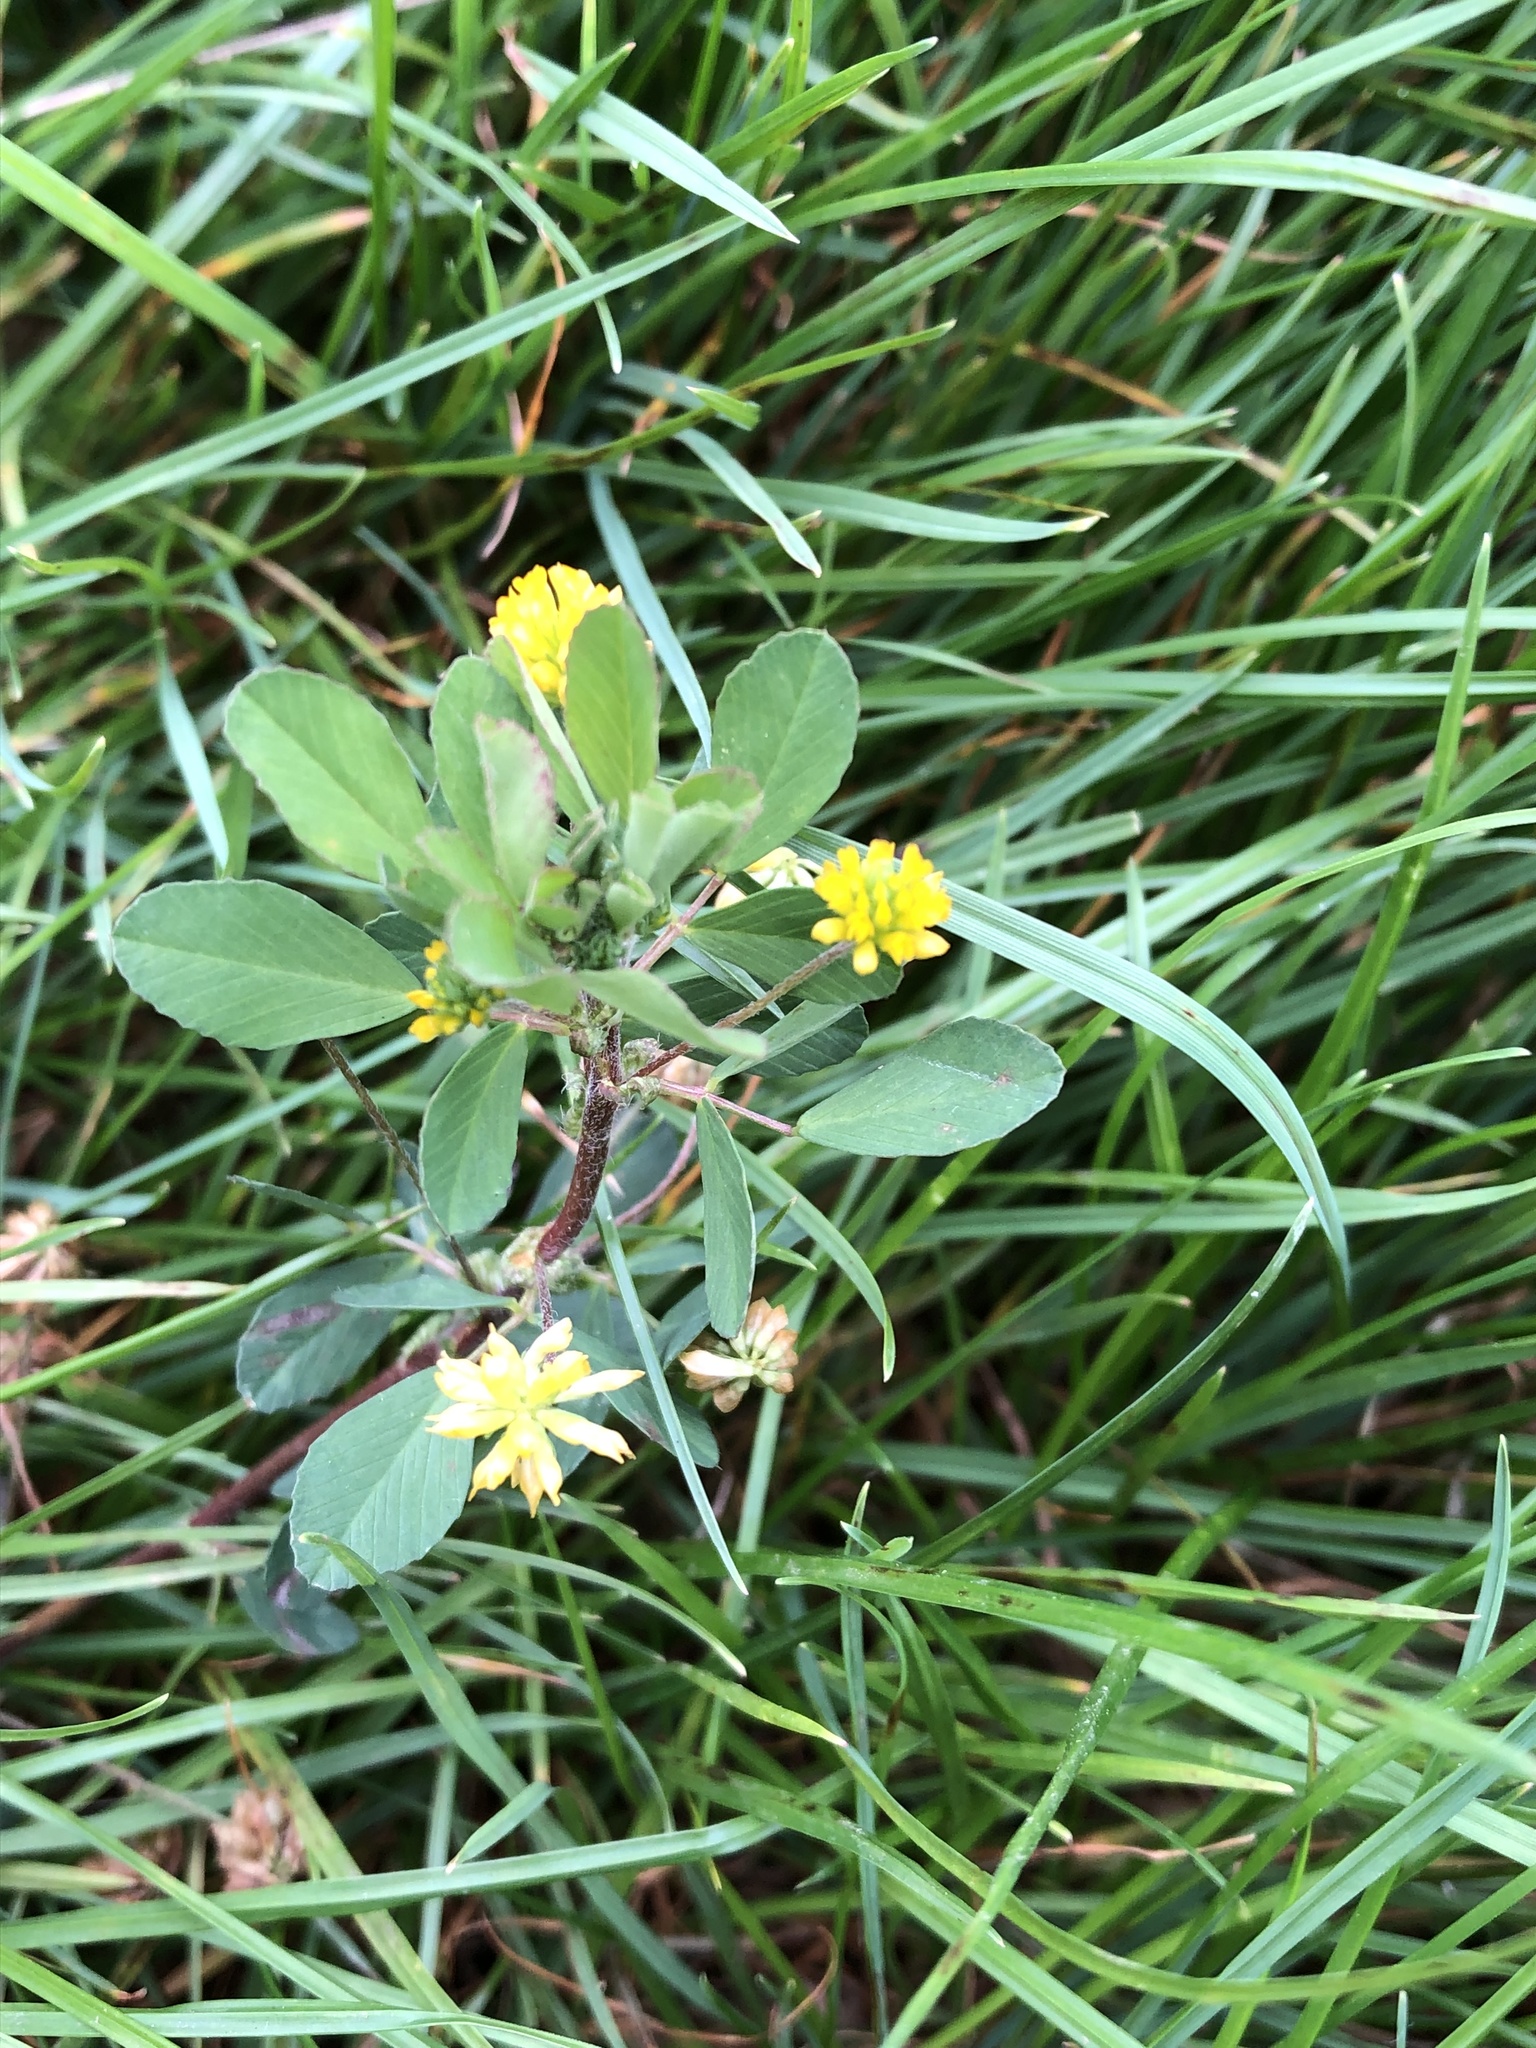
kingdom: Plantae
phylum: Tracheophyta
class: Magnoliopsida
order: Fabales
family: Fabaceae
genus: Trifolium
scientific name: Trifolium dubium
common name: Suckling clover
